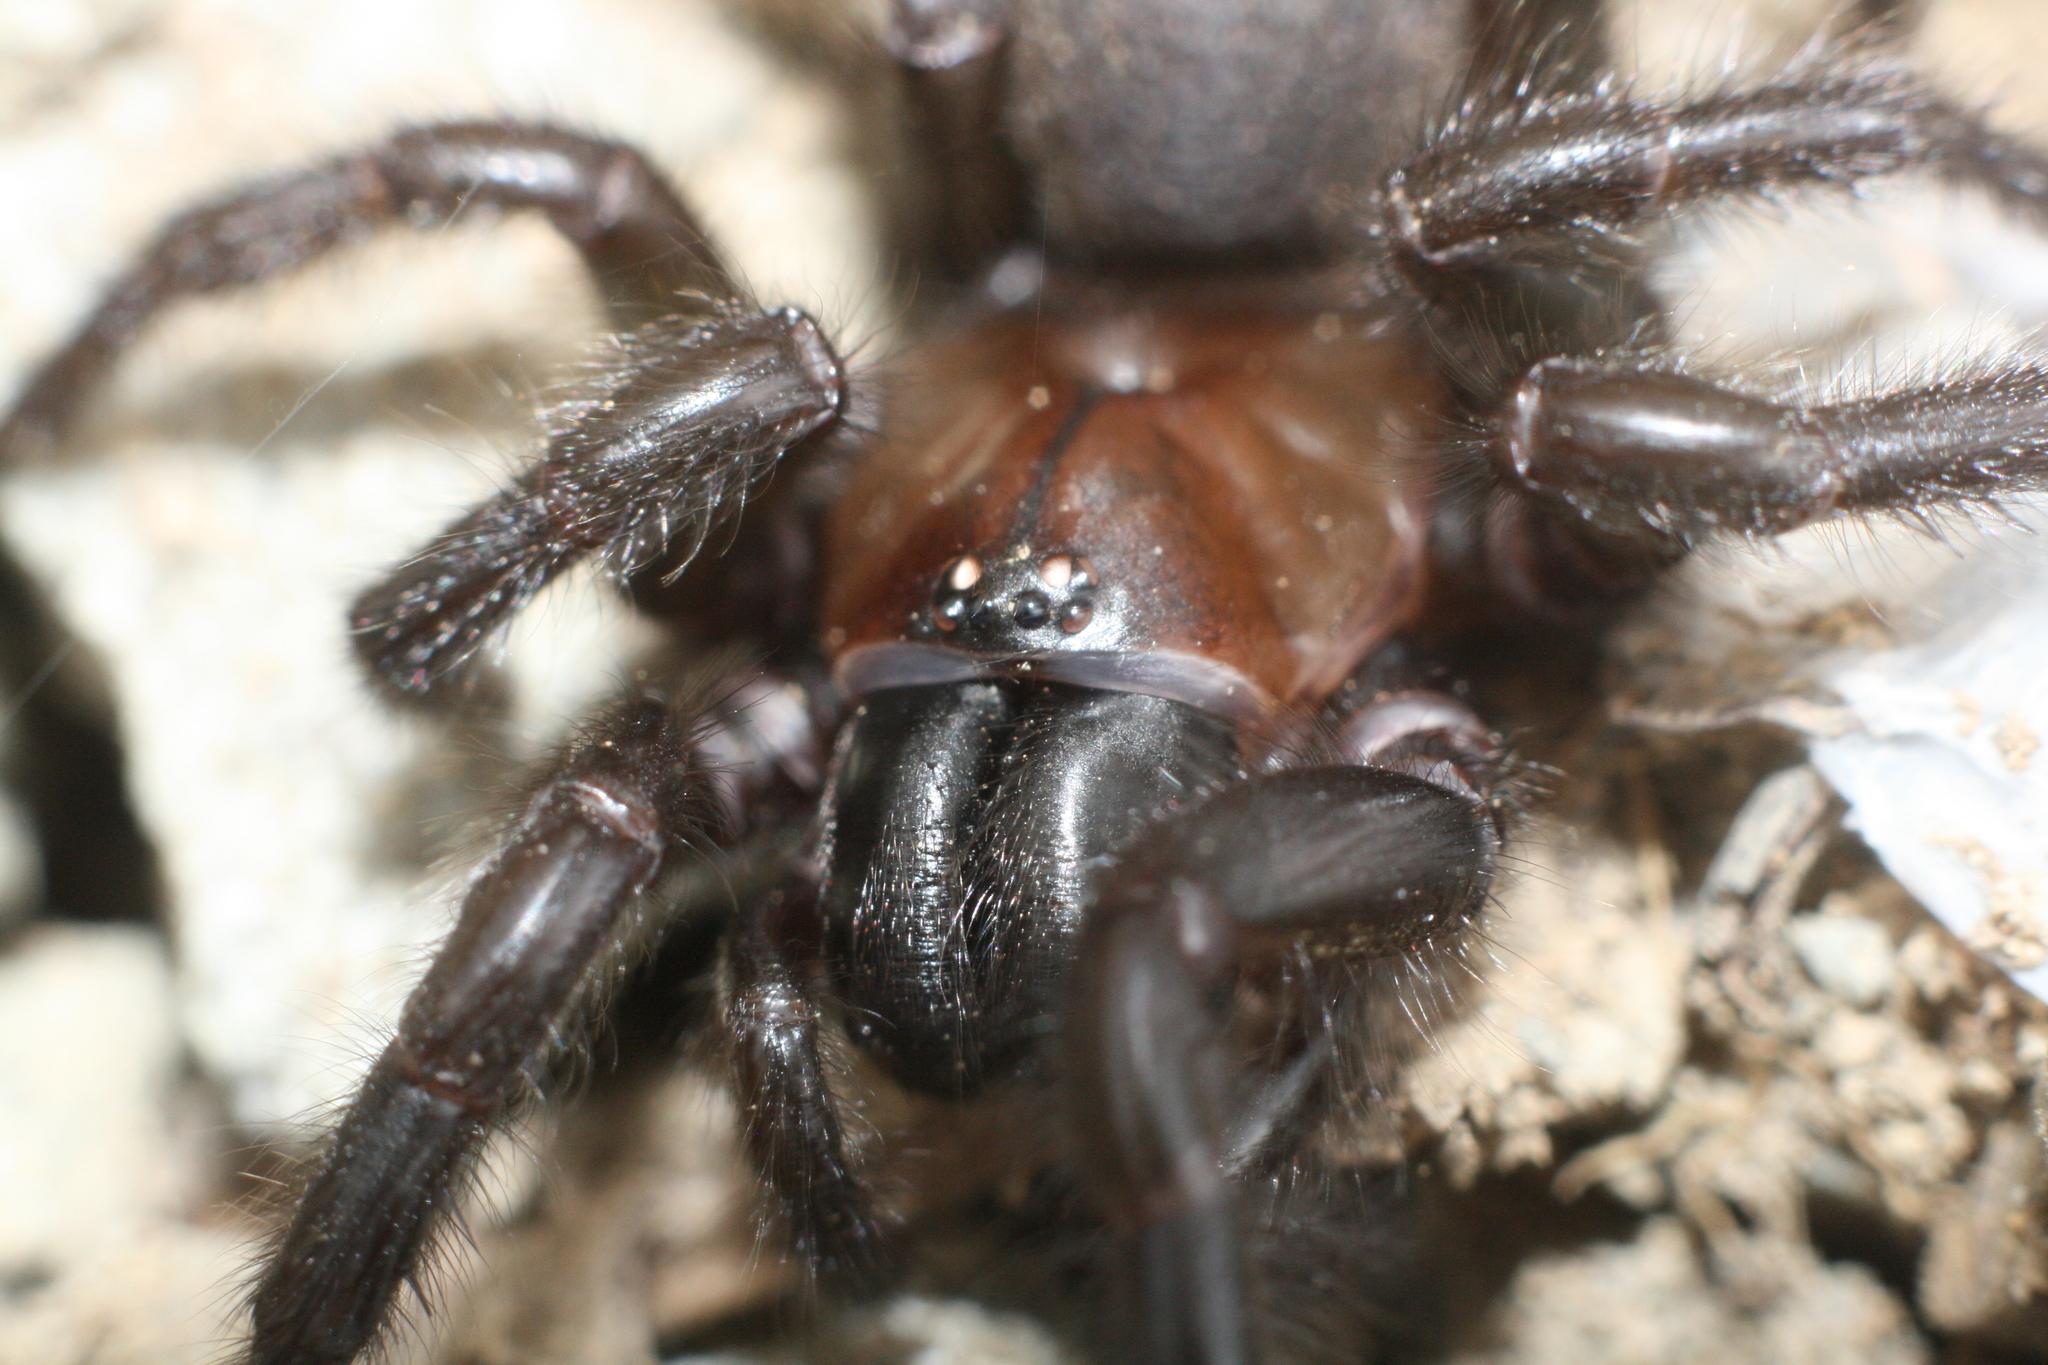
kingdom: Animalia
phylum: Arthropoda
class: Arachnida
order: Araneae
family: Porrhothelidae
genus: Porrhothele
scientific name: Porrhothele antipodiana
